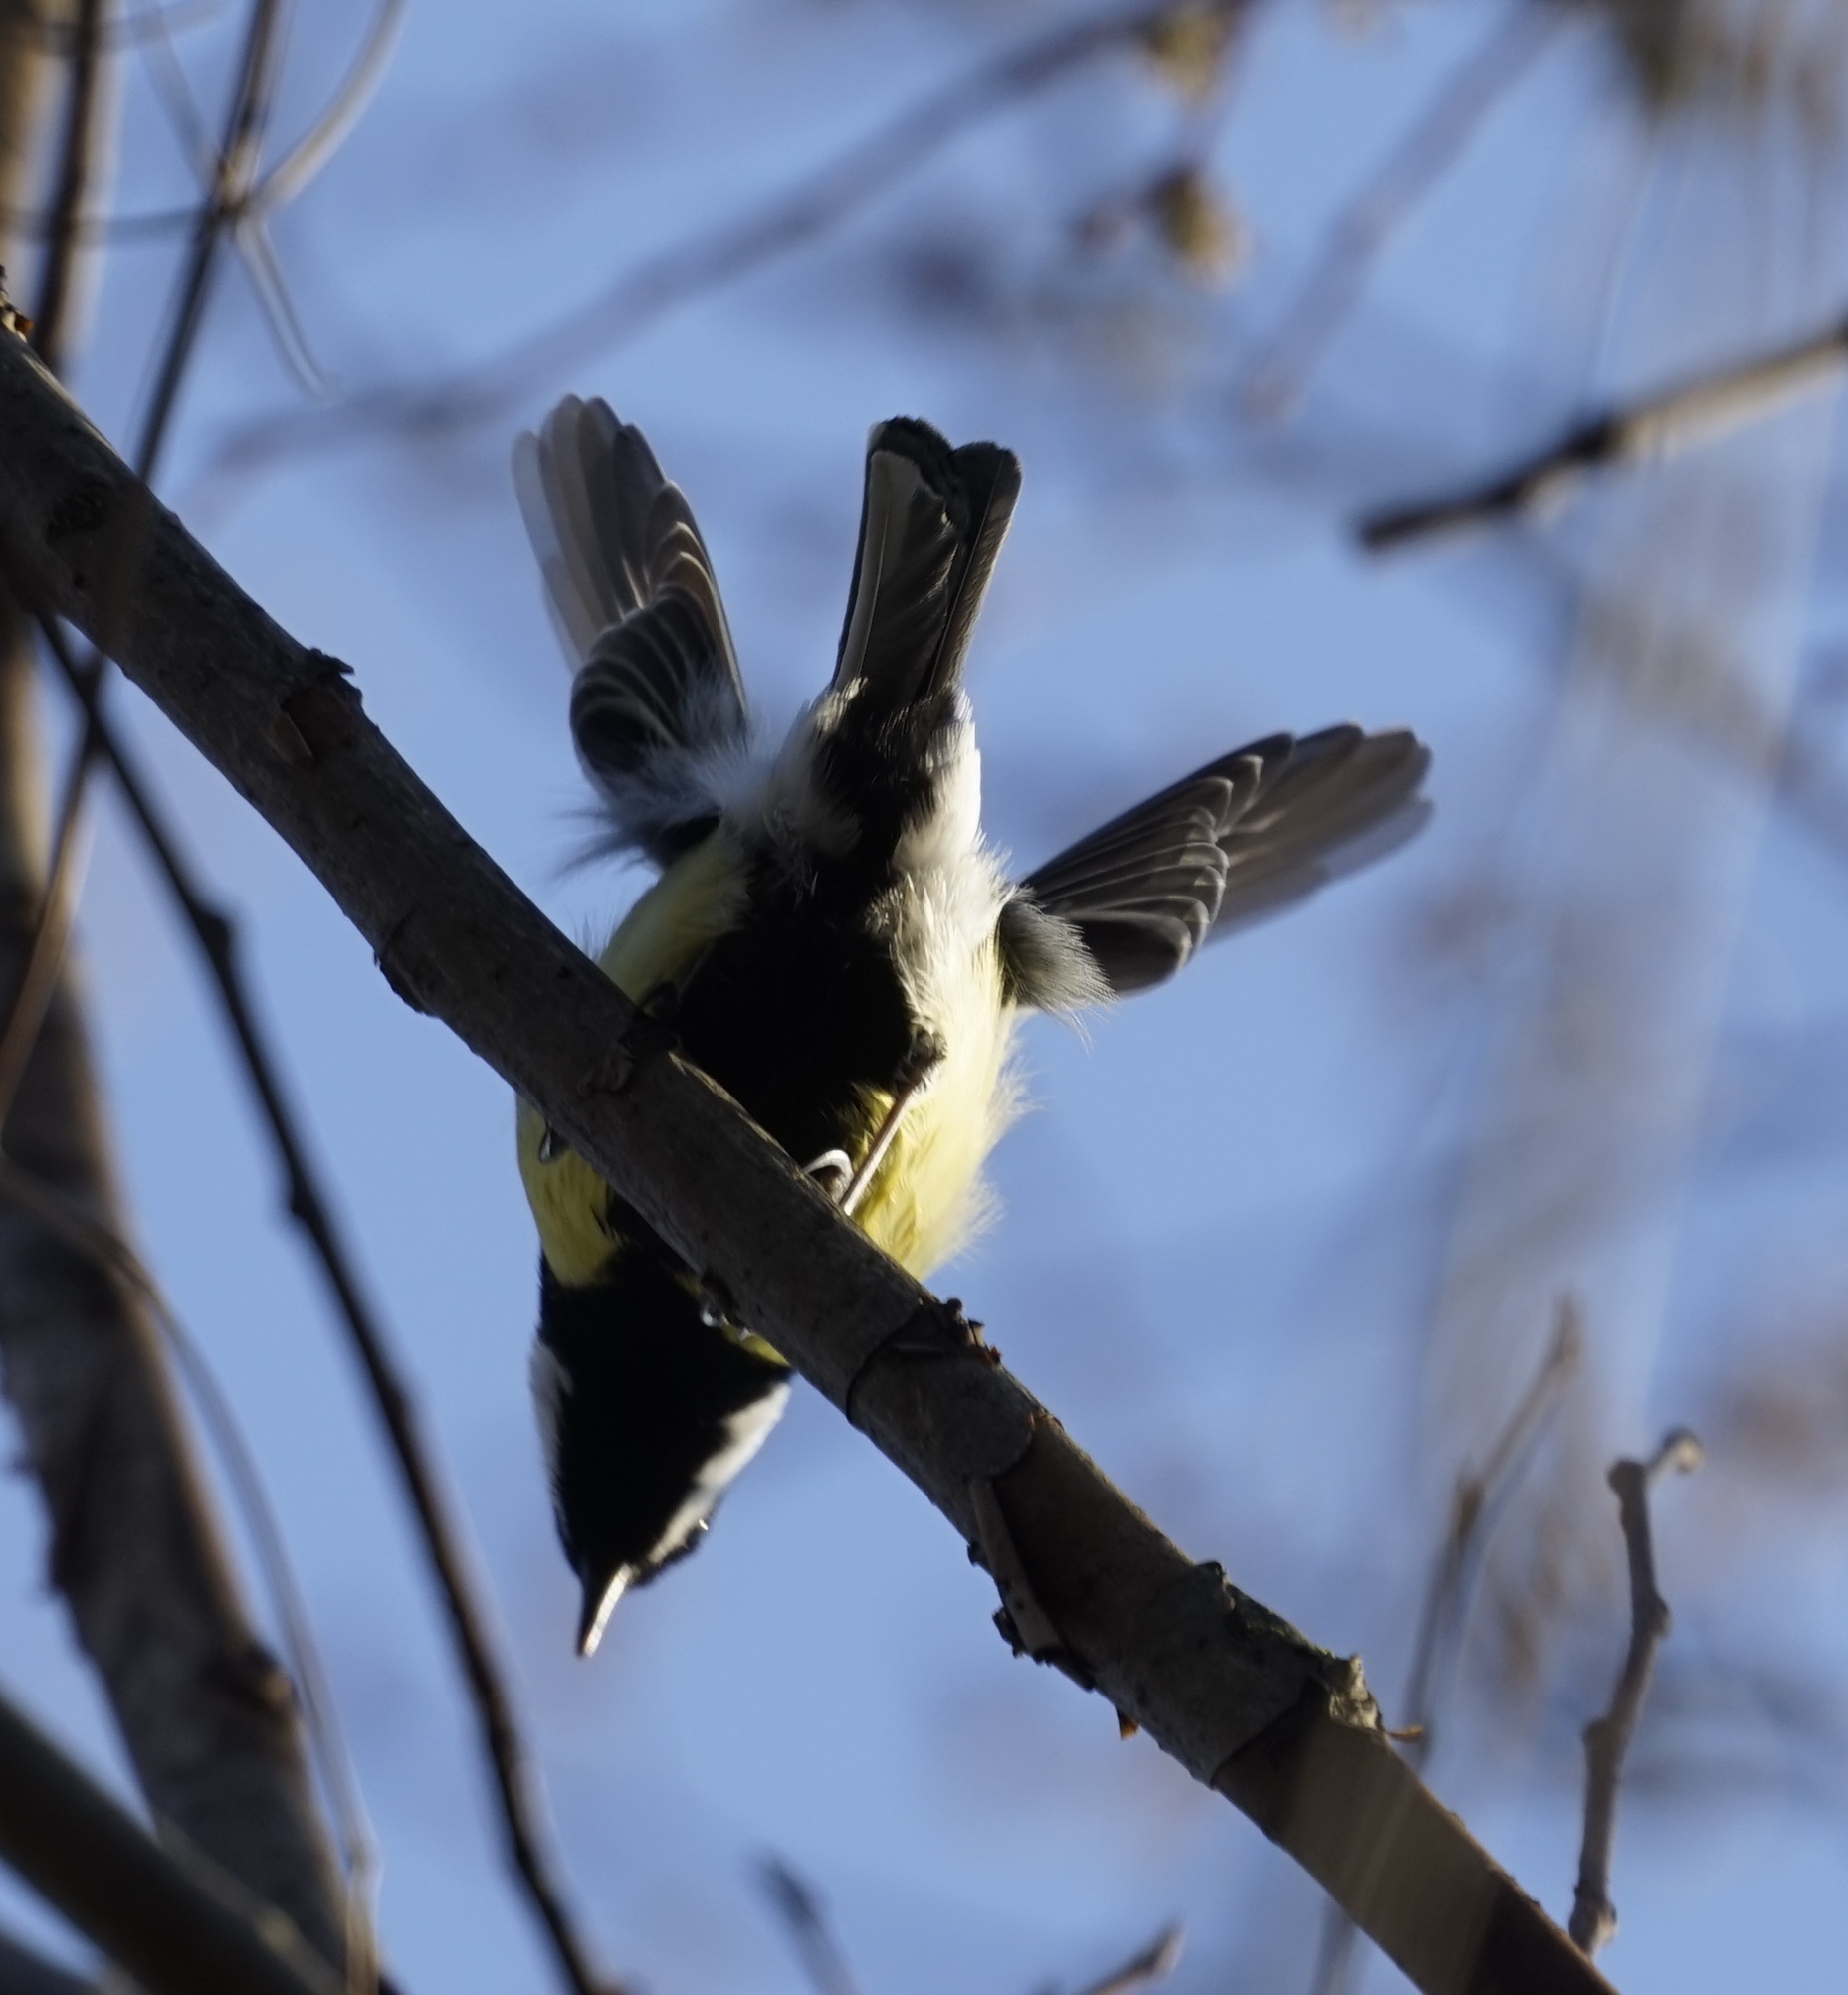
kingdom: Animalia
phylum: Chordata
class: Aves
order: Passeriformes
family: Paridae
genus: Parus
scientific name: Parus major
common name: Great tit
